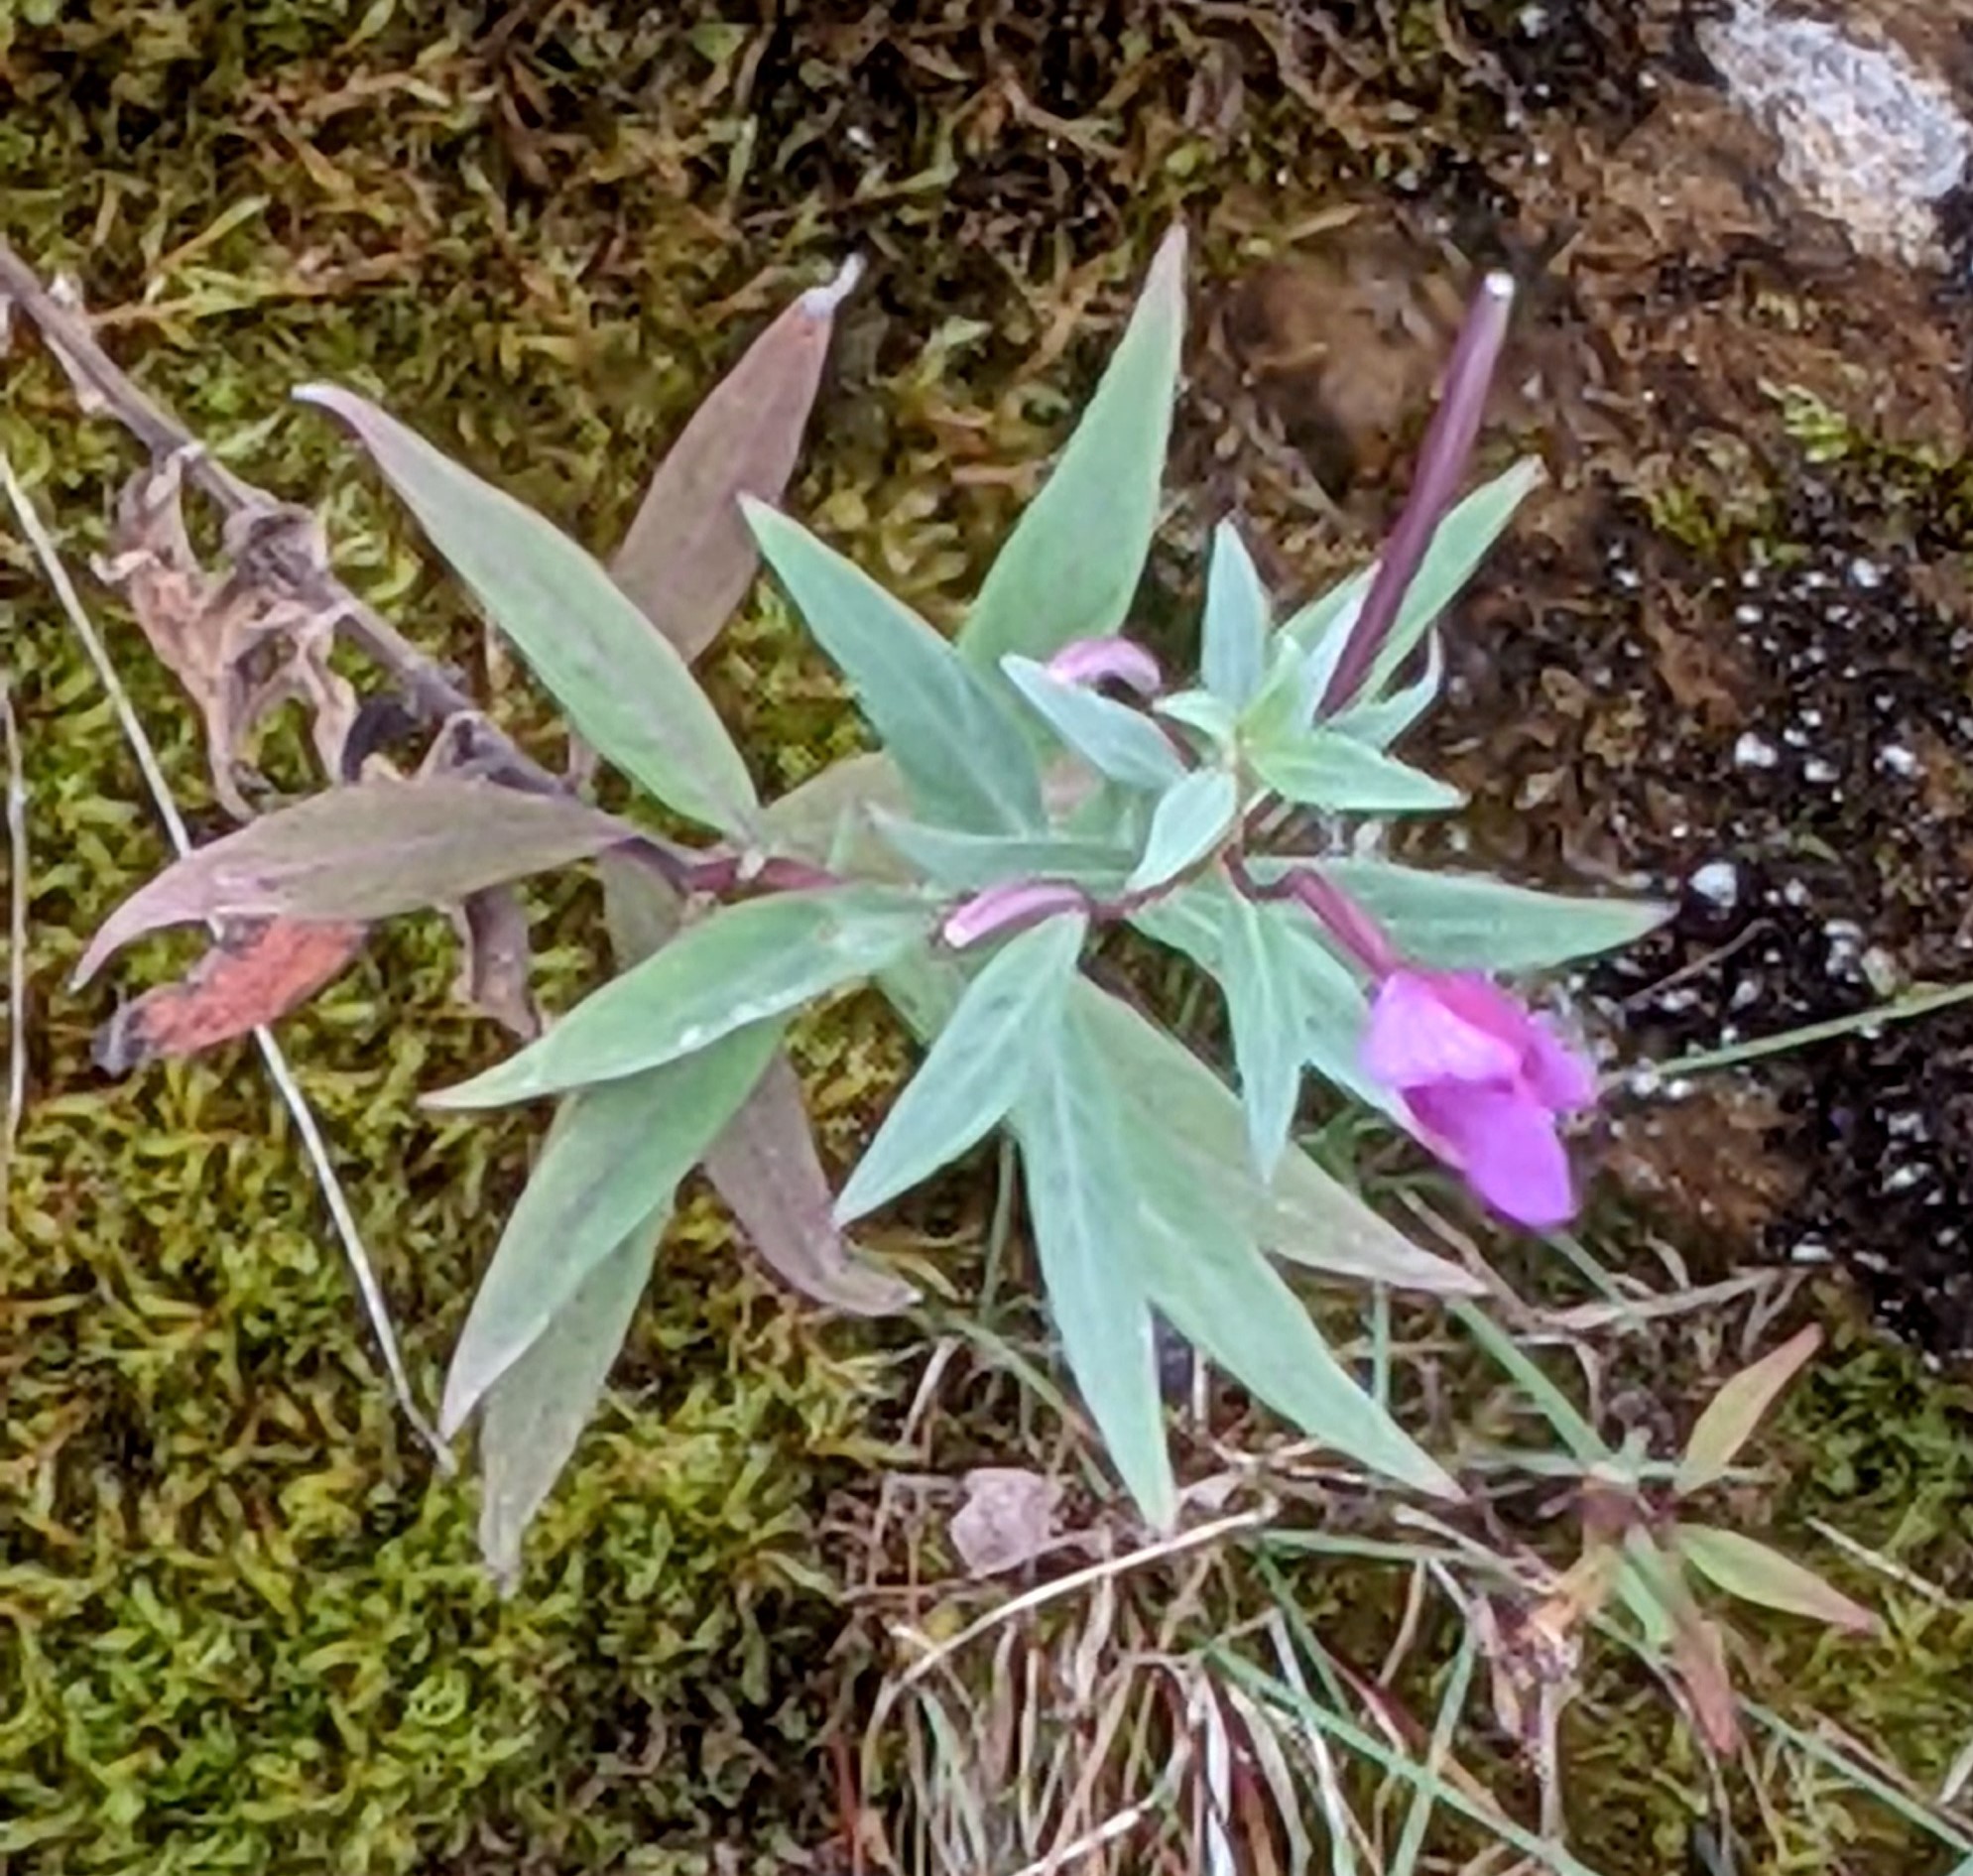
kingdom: Plantae
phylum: Tracheophyta
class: Magnoliopsida
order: Myrtales
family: Onagraceae
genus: Chamaenerion
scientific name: Chamaenerion latifolium
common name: Dwarf fireweed
